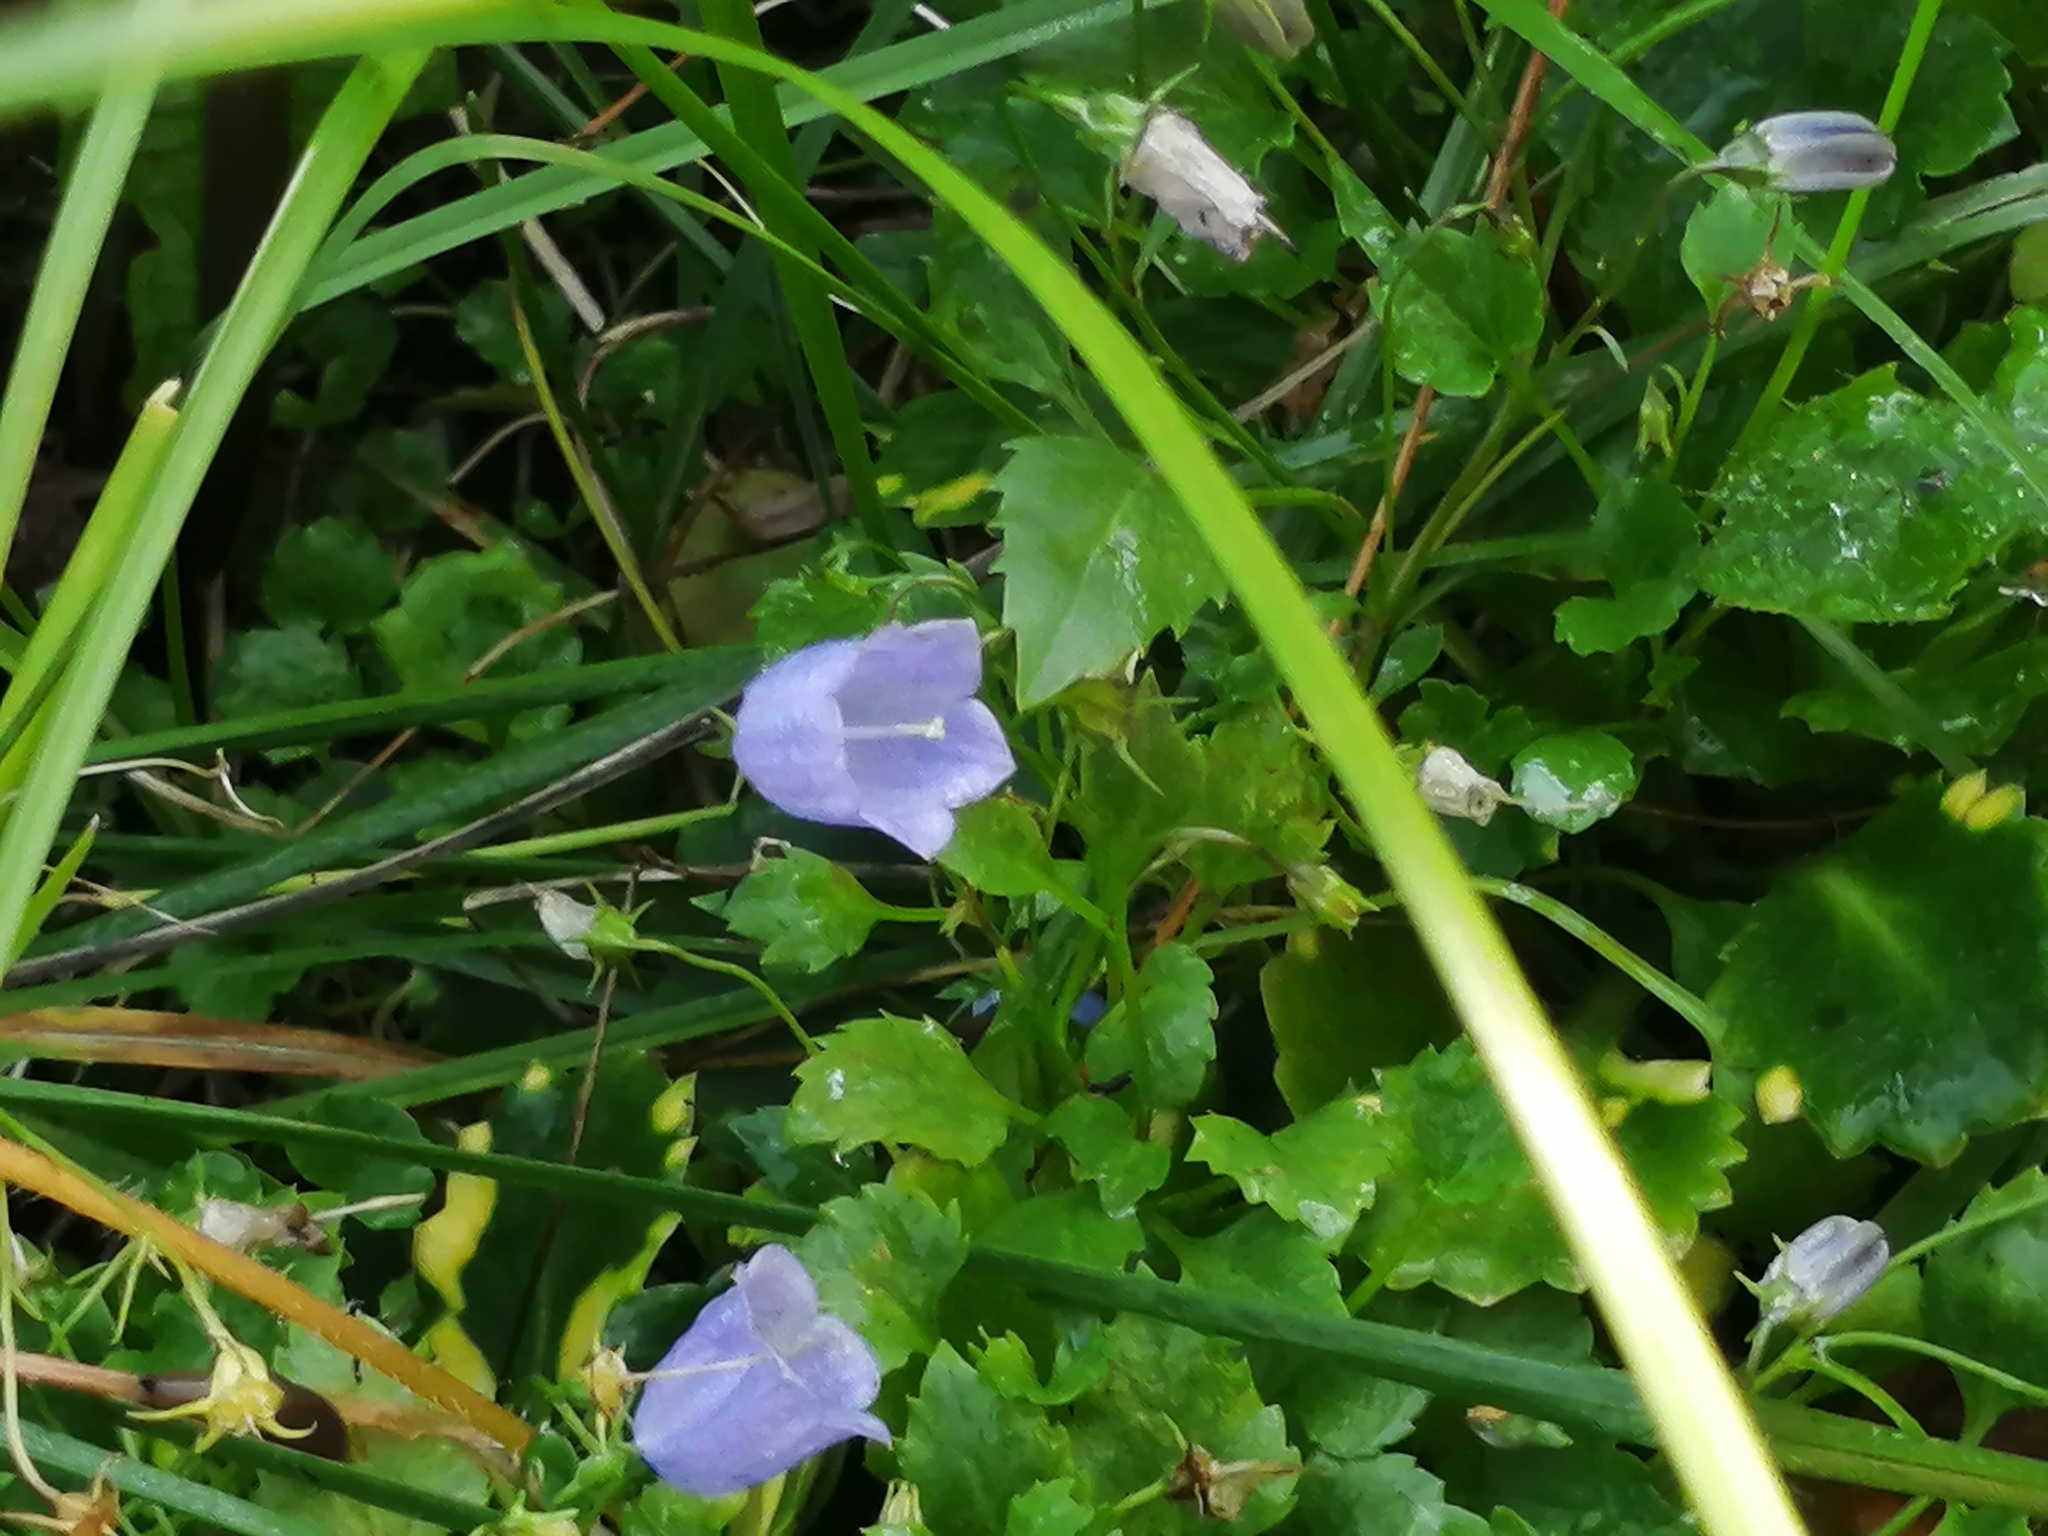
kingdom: Plantae
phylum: Tracheophyta
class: Magnoliopsida
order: Asterales
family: Campanulaceae
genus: Campanula
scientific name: Campanula rotundifolia
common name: Harebell
